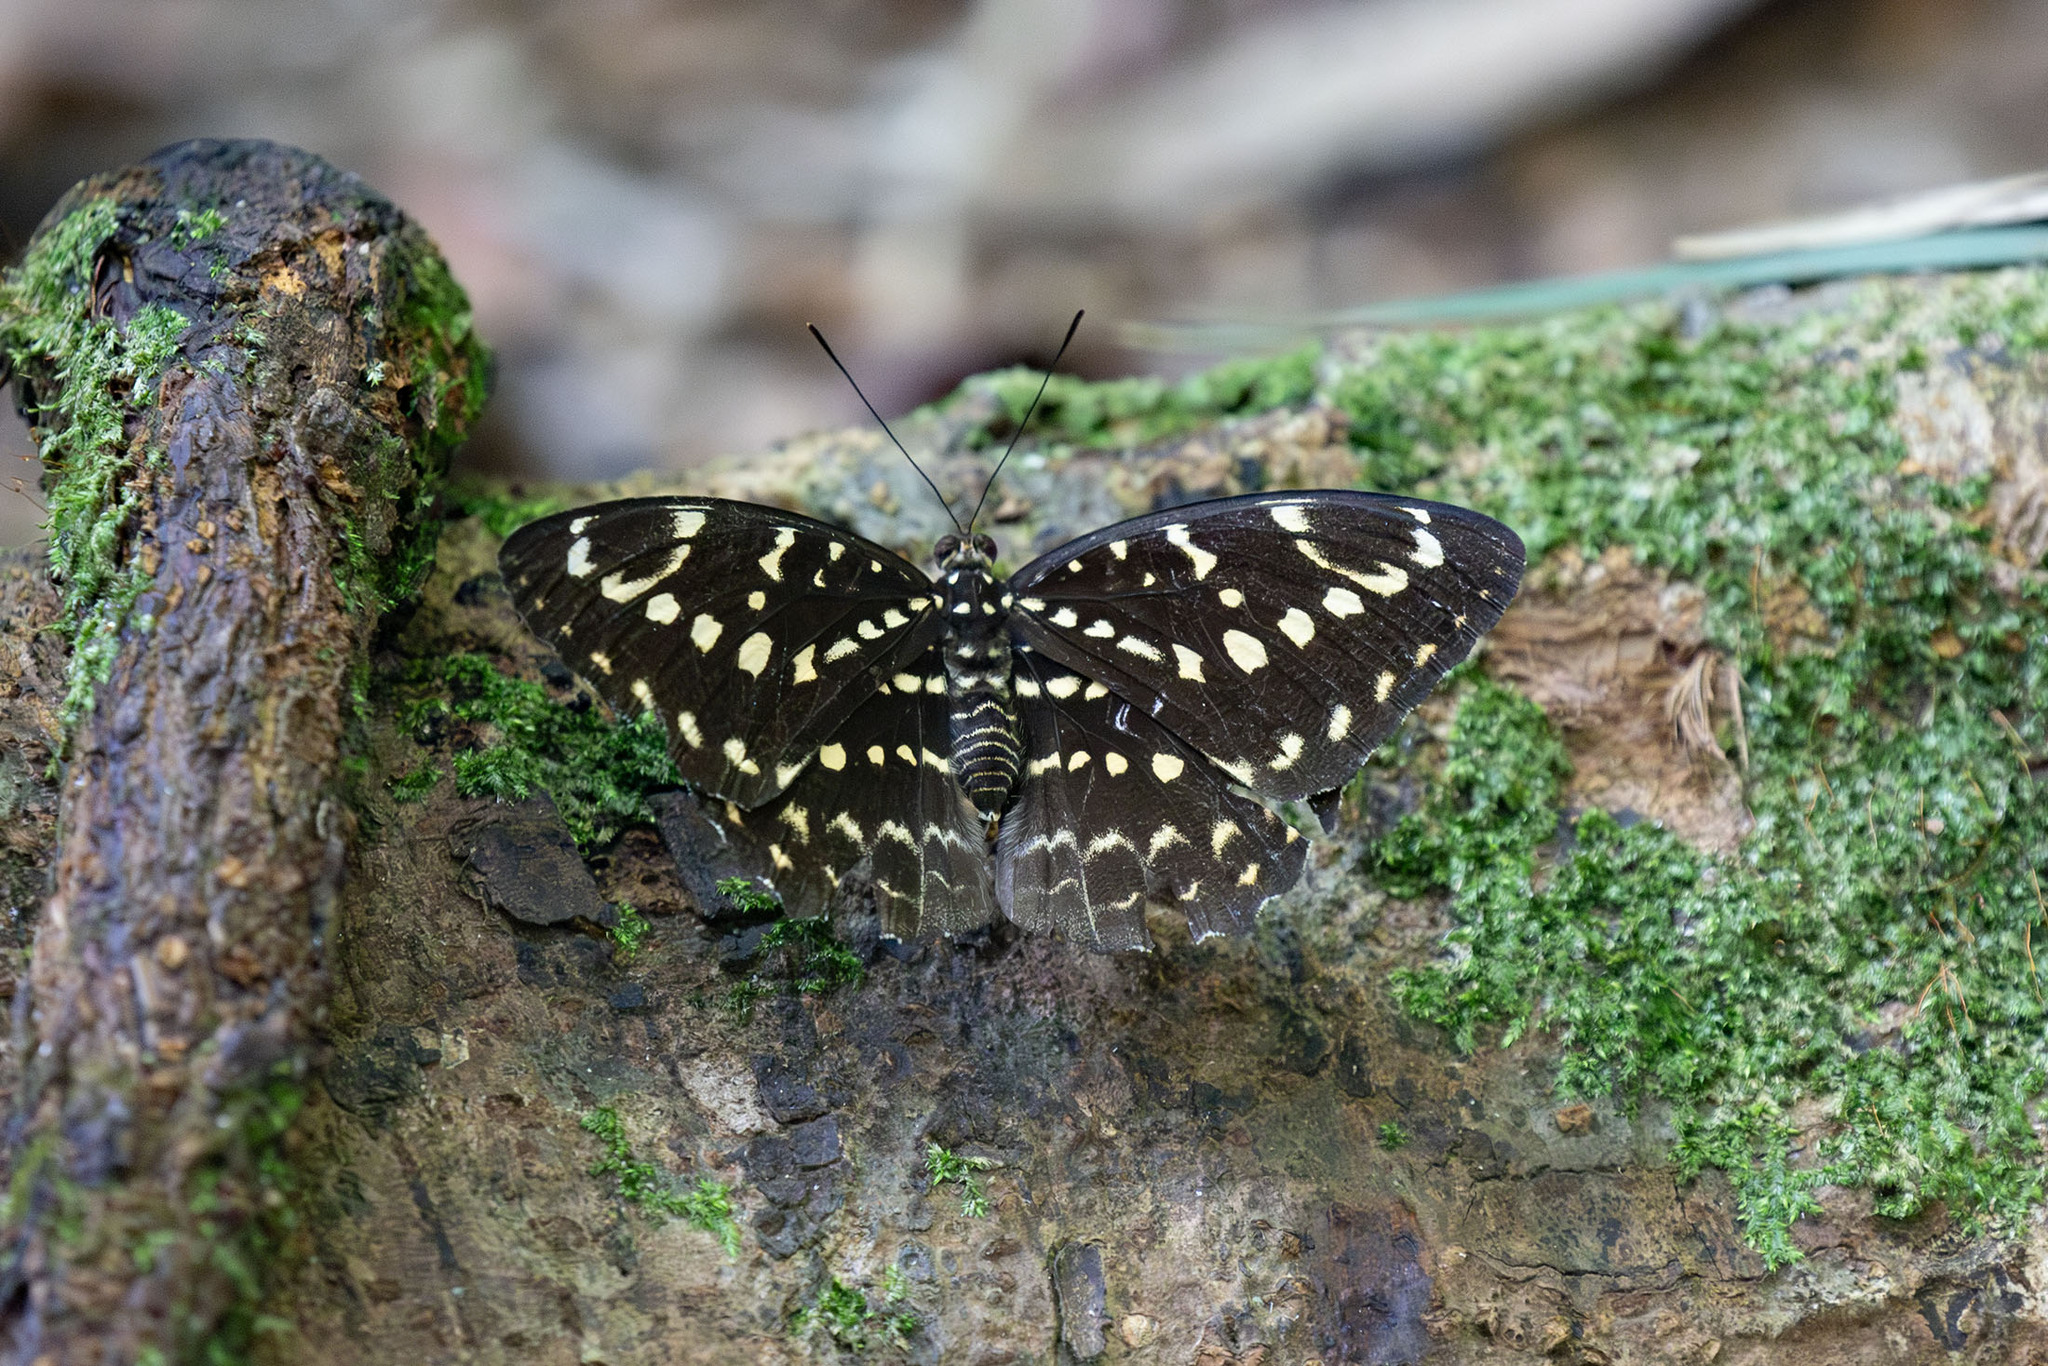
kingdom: Animalia
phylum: Arthropoda
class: Insecta
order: Lepidoptera
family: Nymphalidae
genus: Lexias
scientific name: Lexias canescens
